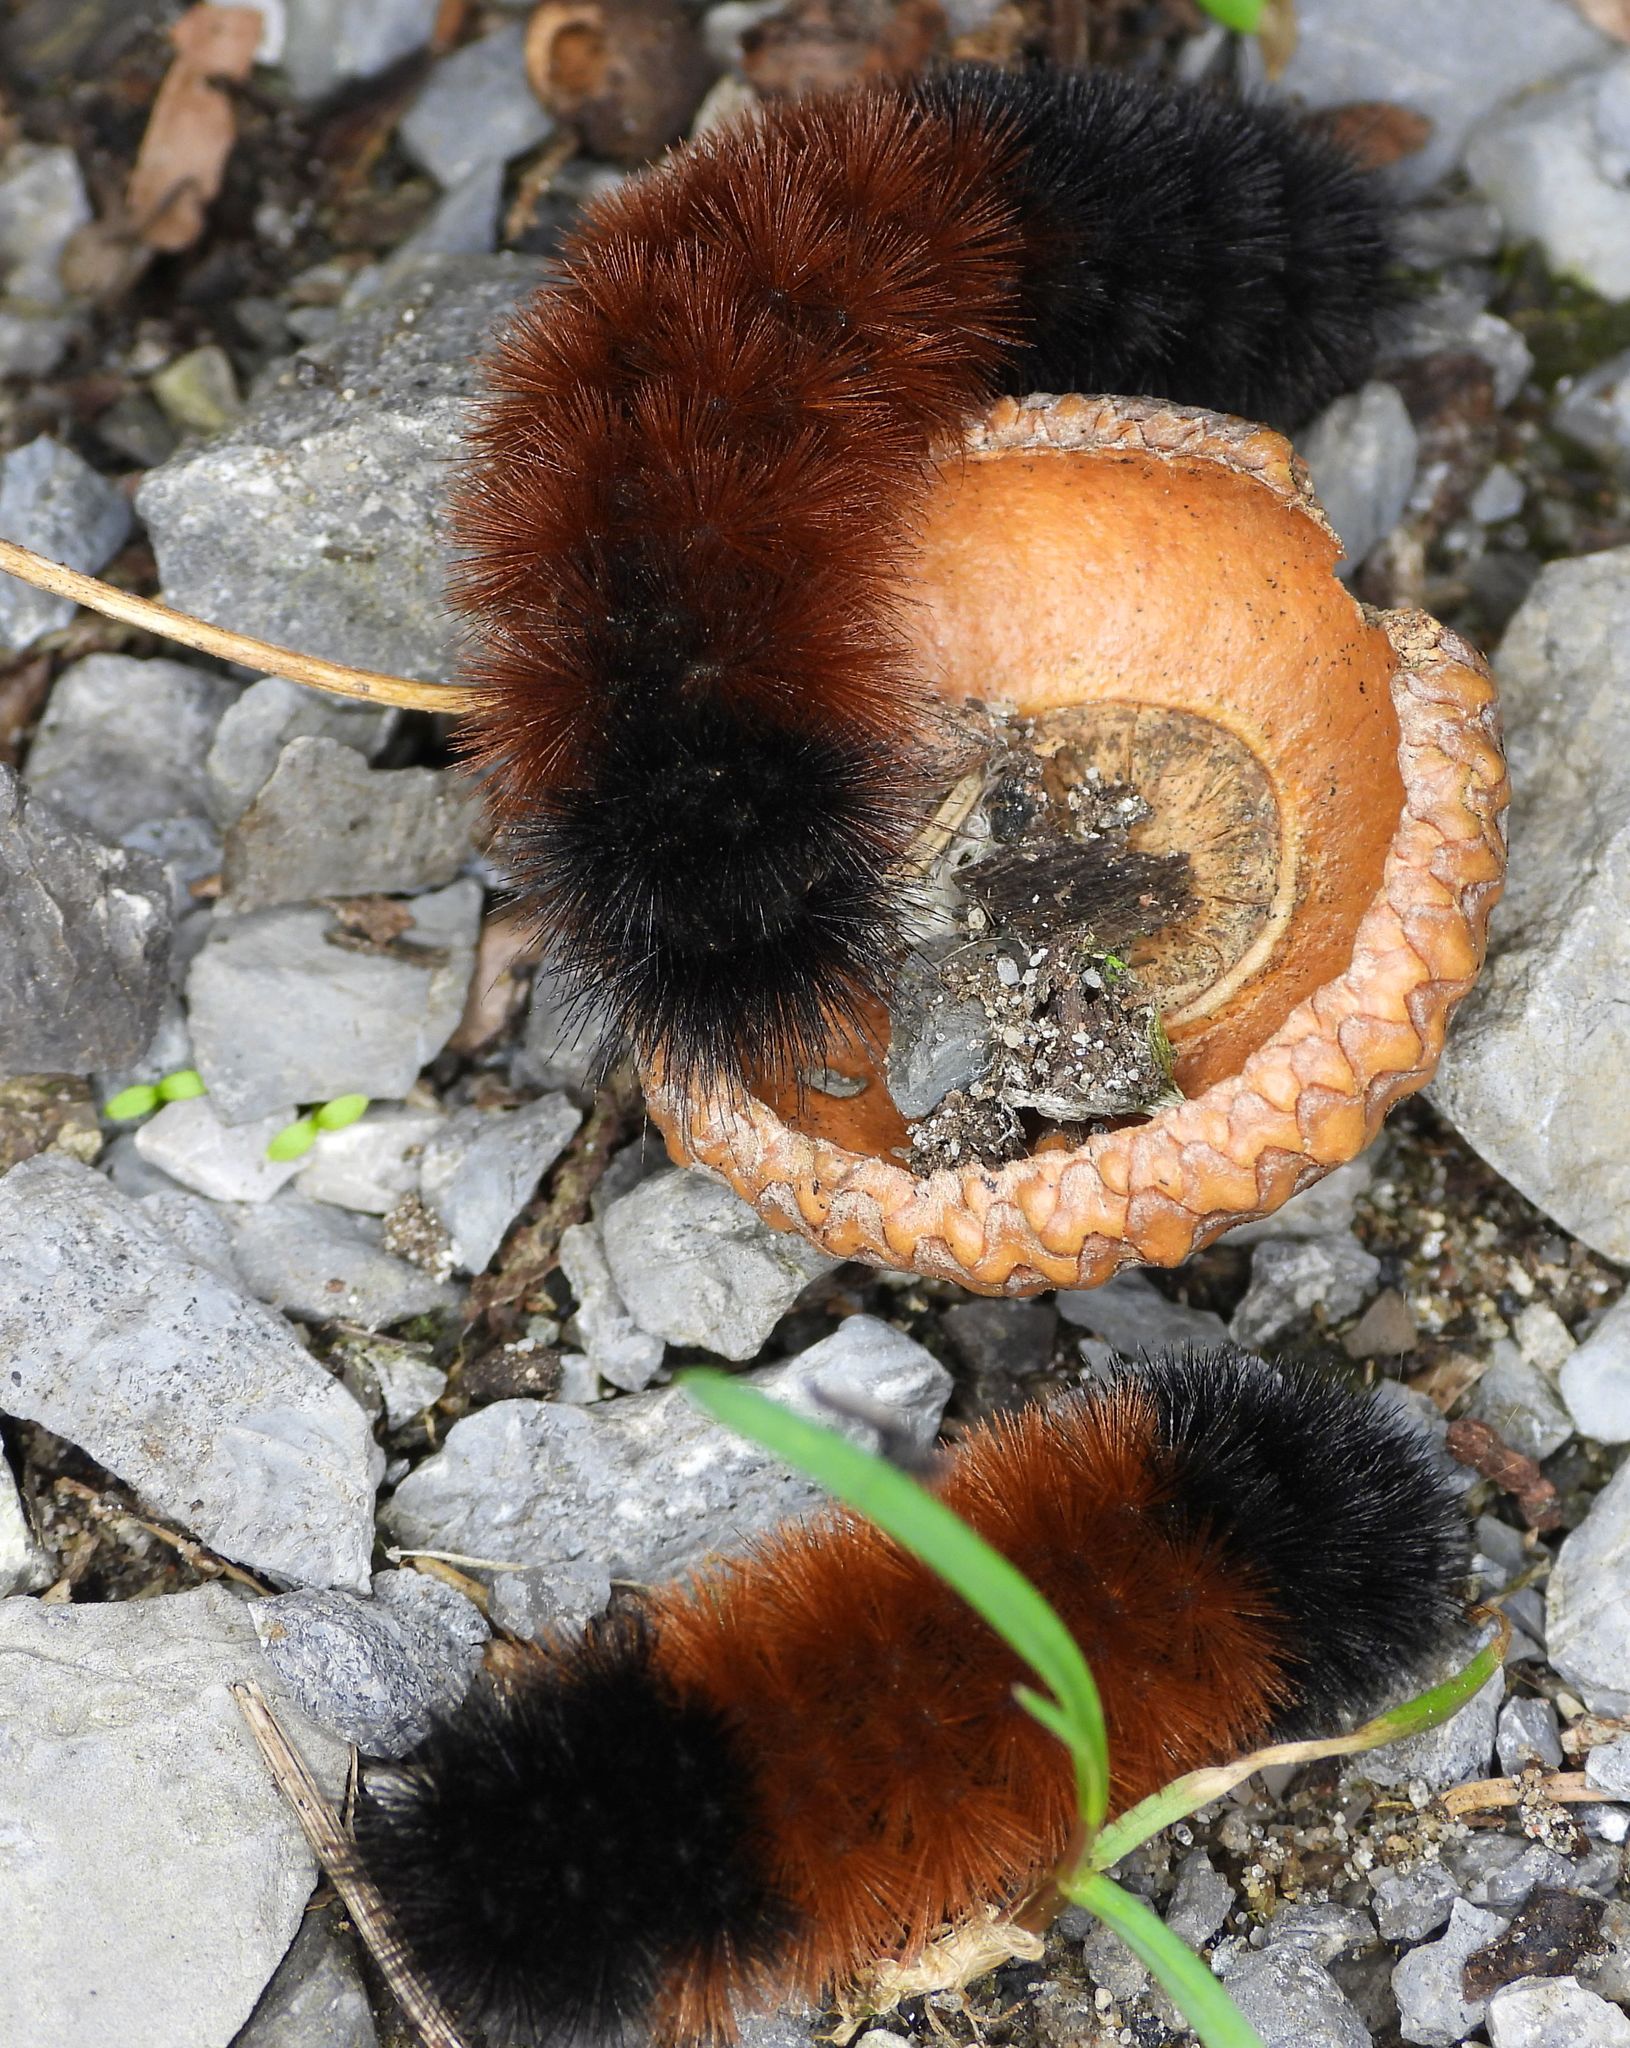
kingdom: Animalia
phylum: Arthropoda
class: Insecta
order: Lepidoptera
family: Erebidae
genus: Pyrrharctia
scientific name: Pyrrharctia isabella
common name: Isabella tiger moth
